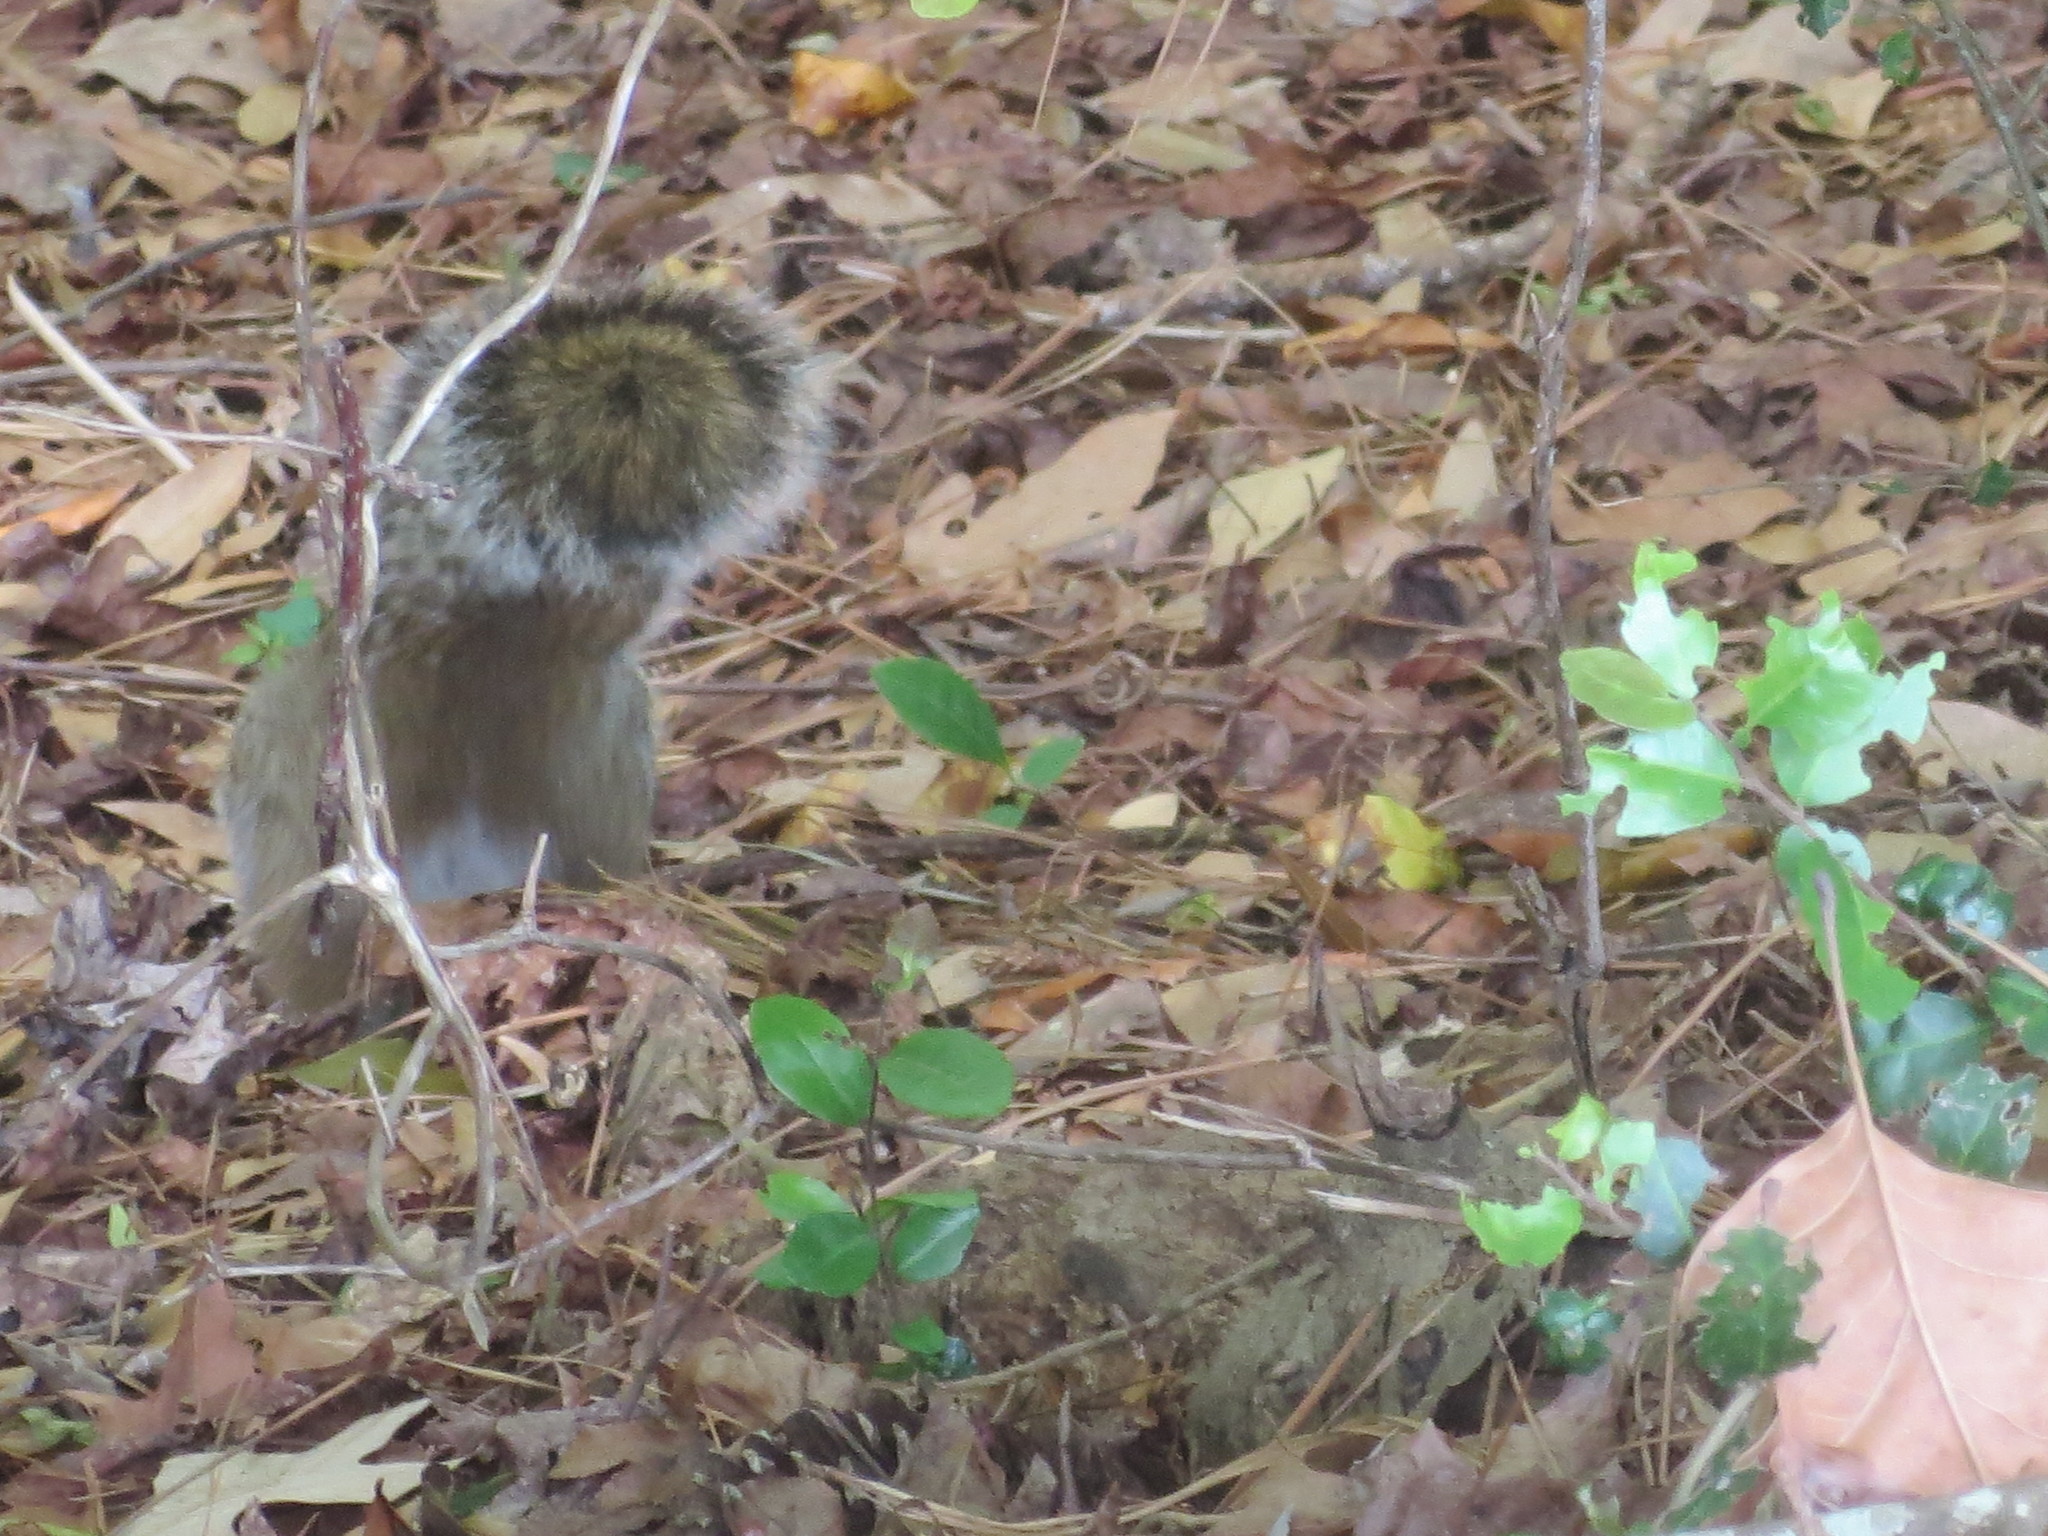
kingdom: Animalia
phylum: Chordata
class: Mammalia
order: Rodentia
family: Sciuridae
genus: Sciurus
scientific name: Sciurus carolinensis
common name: Eastern gray squirrel
